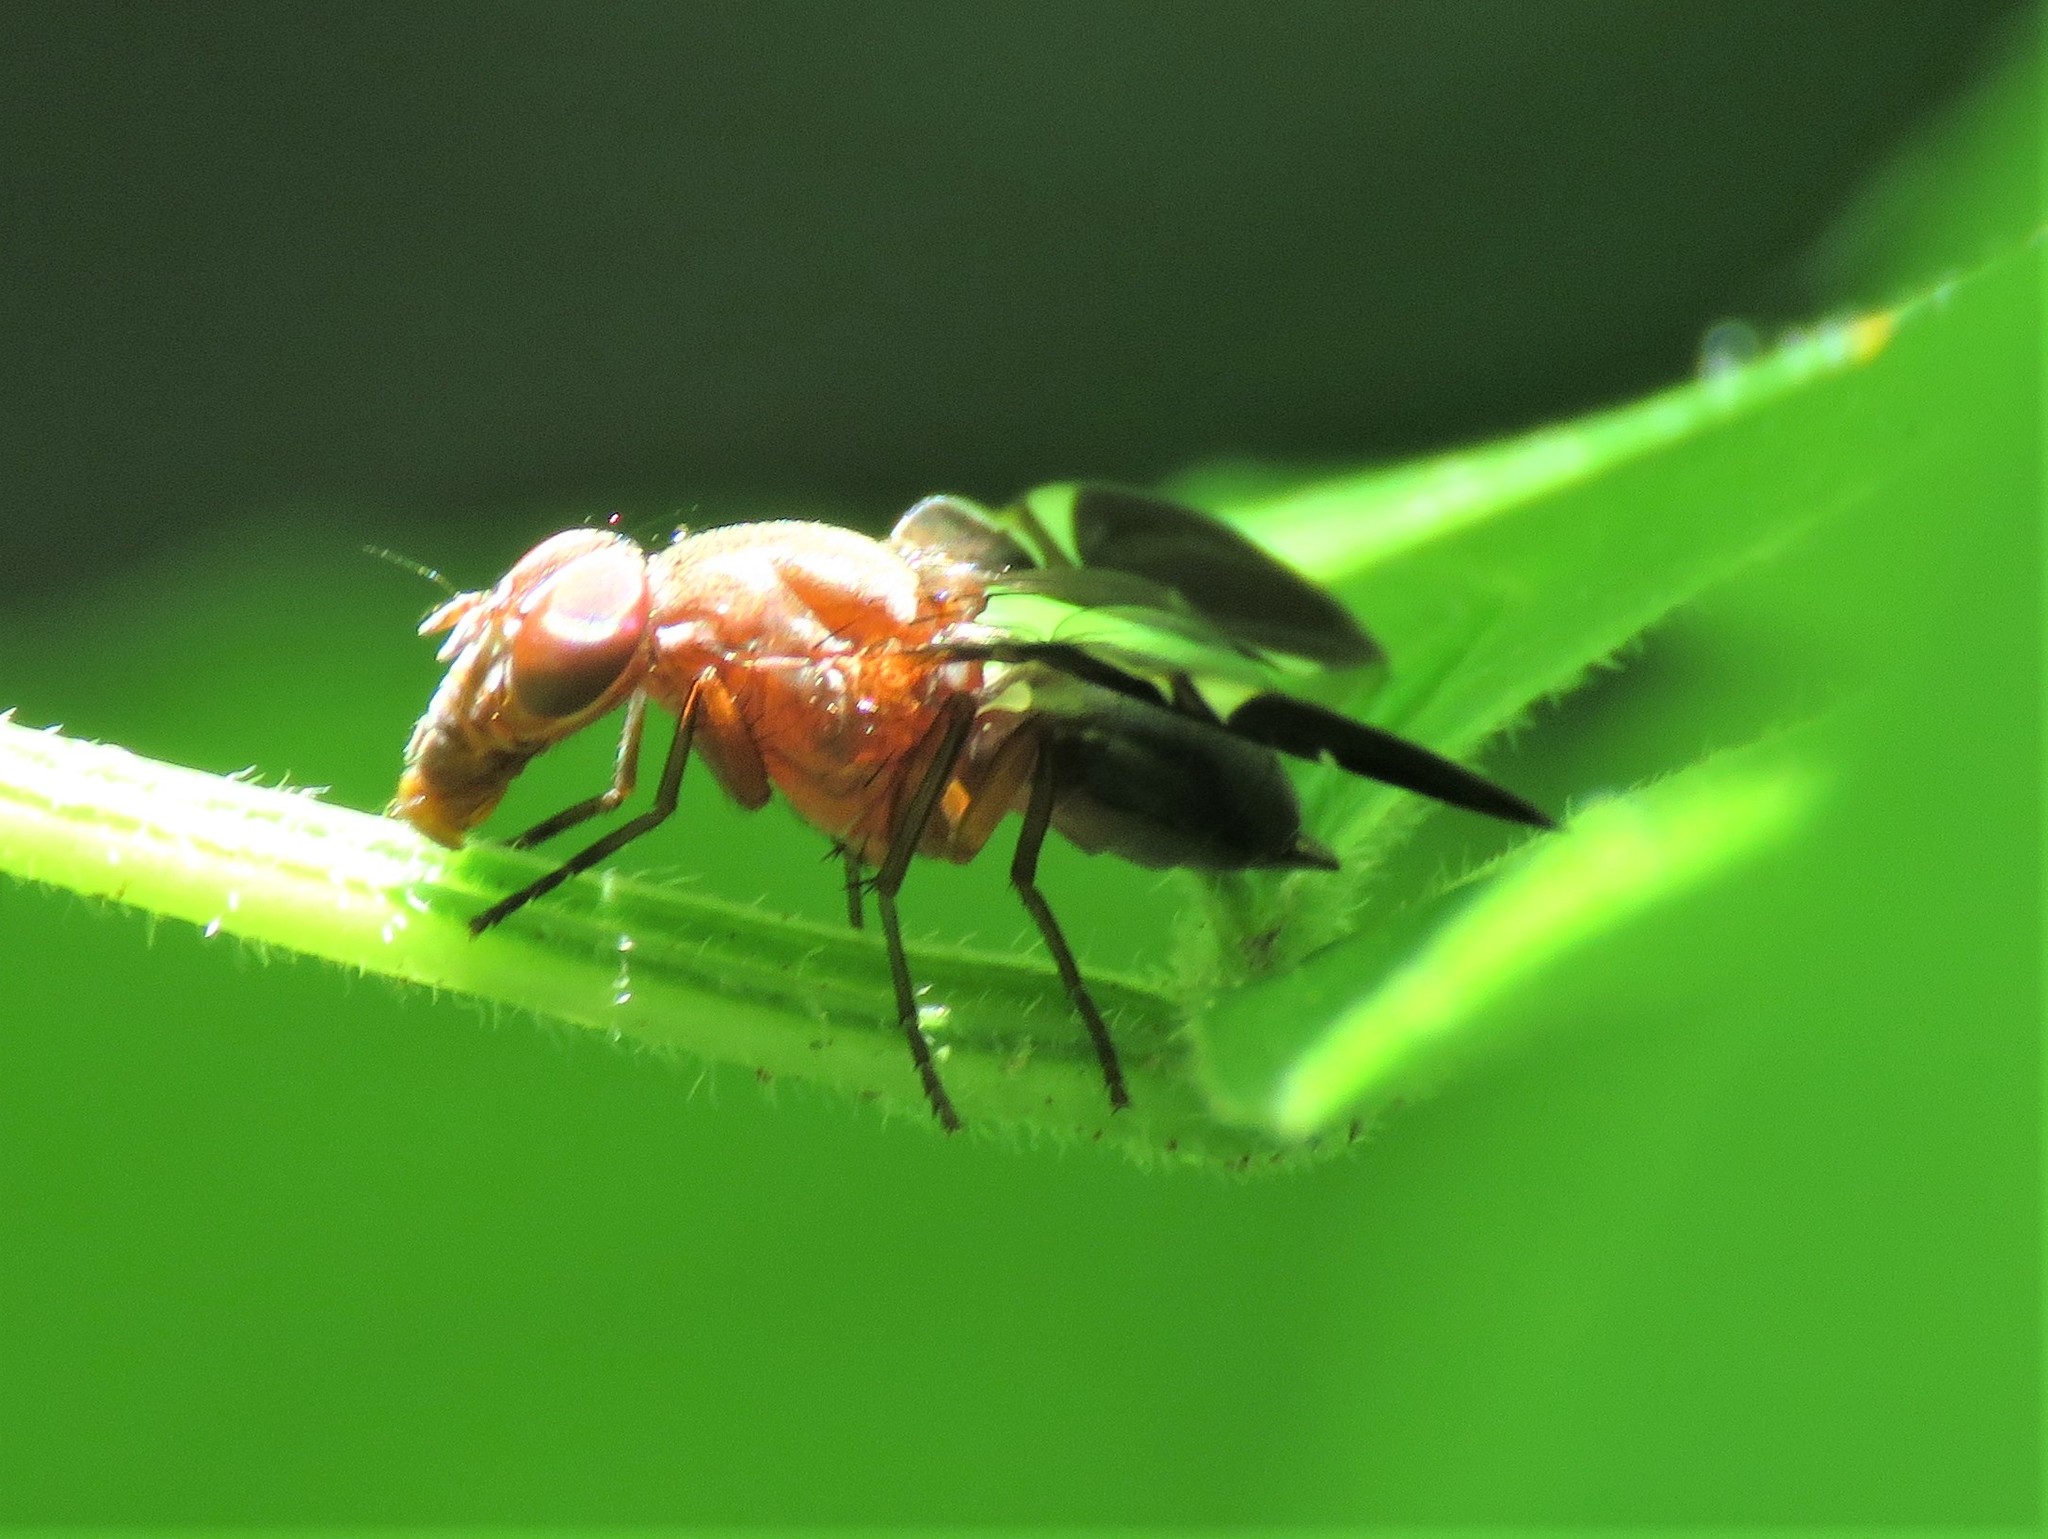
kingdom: Animalia
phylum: Arthropoda
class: Insecta
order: Diptera
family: Ulidiidae
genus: Delphinia
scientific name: Delphinia picta
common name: Common picture-winged fly
